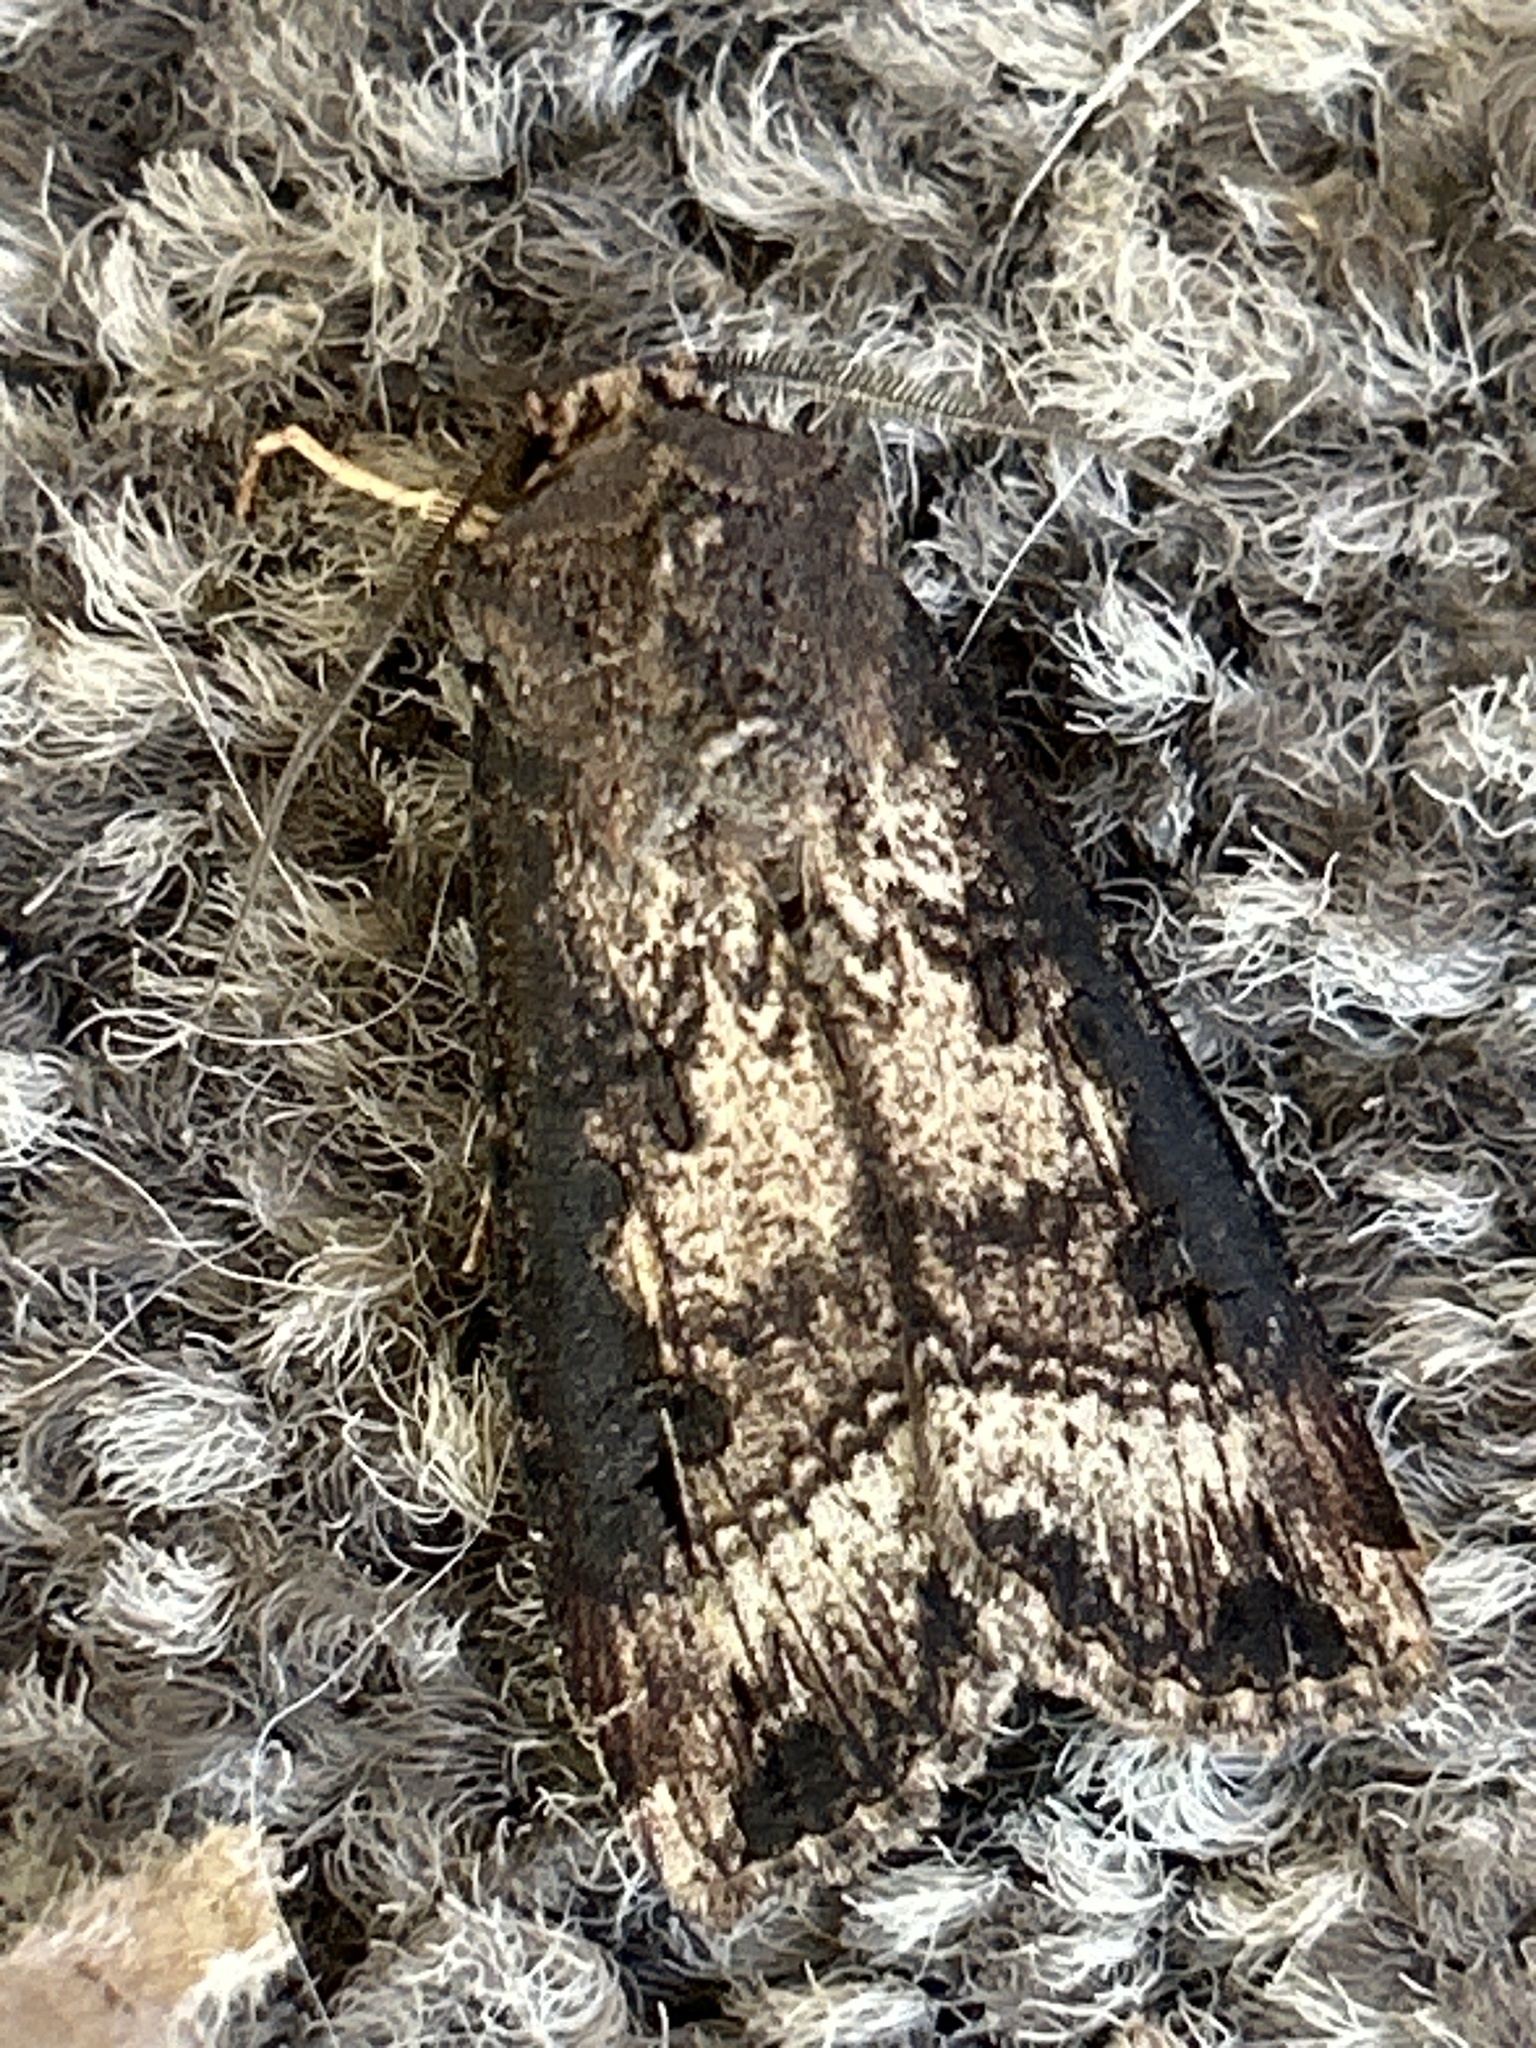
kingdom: Animalia
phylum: Arthropoda
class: Insecta
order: Lepidoptera
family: Noctuidae
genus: Agrotis
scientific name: Agrotis ipsilon
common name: Dark sword-grass
